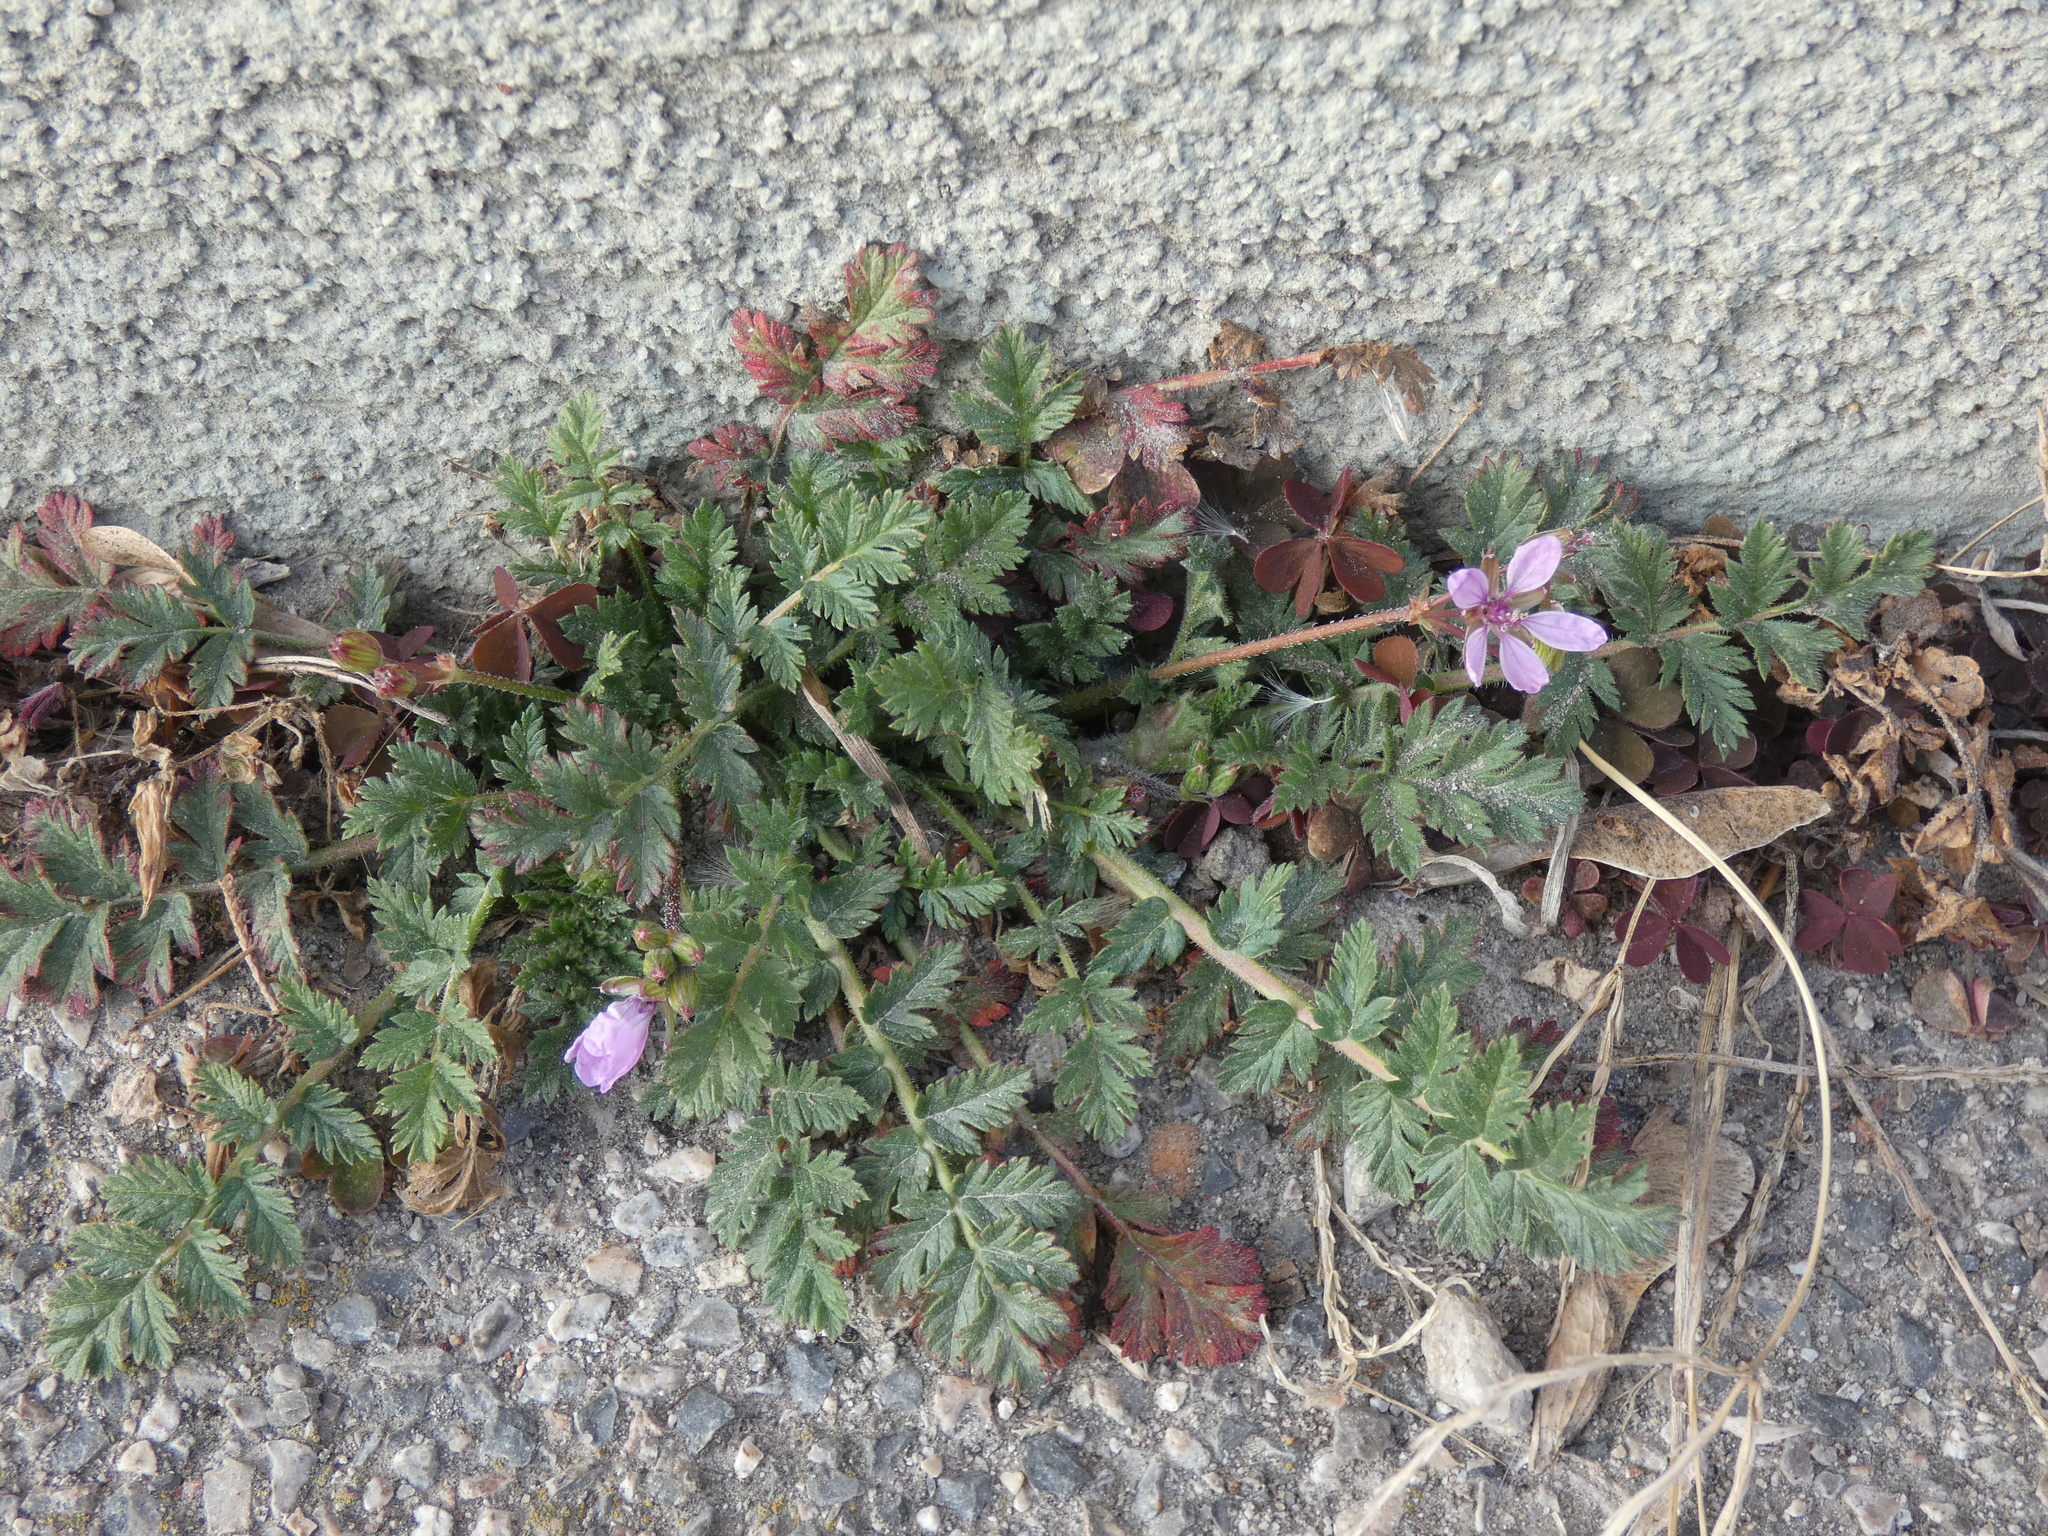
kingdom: Plantae
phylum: Tracheophyta
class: Magnoliopsida
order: Geraniales
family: Geraniaceae
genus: Erodium
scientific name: Erodium cicutarium
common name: Common stork's-bill
